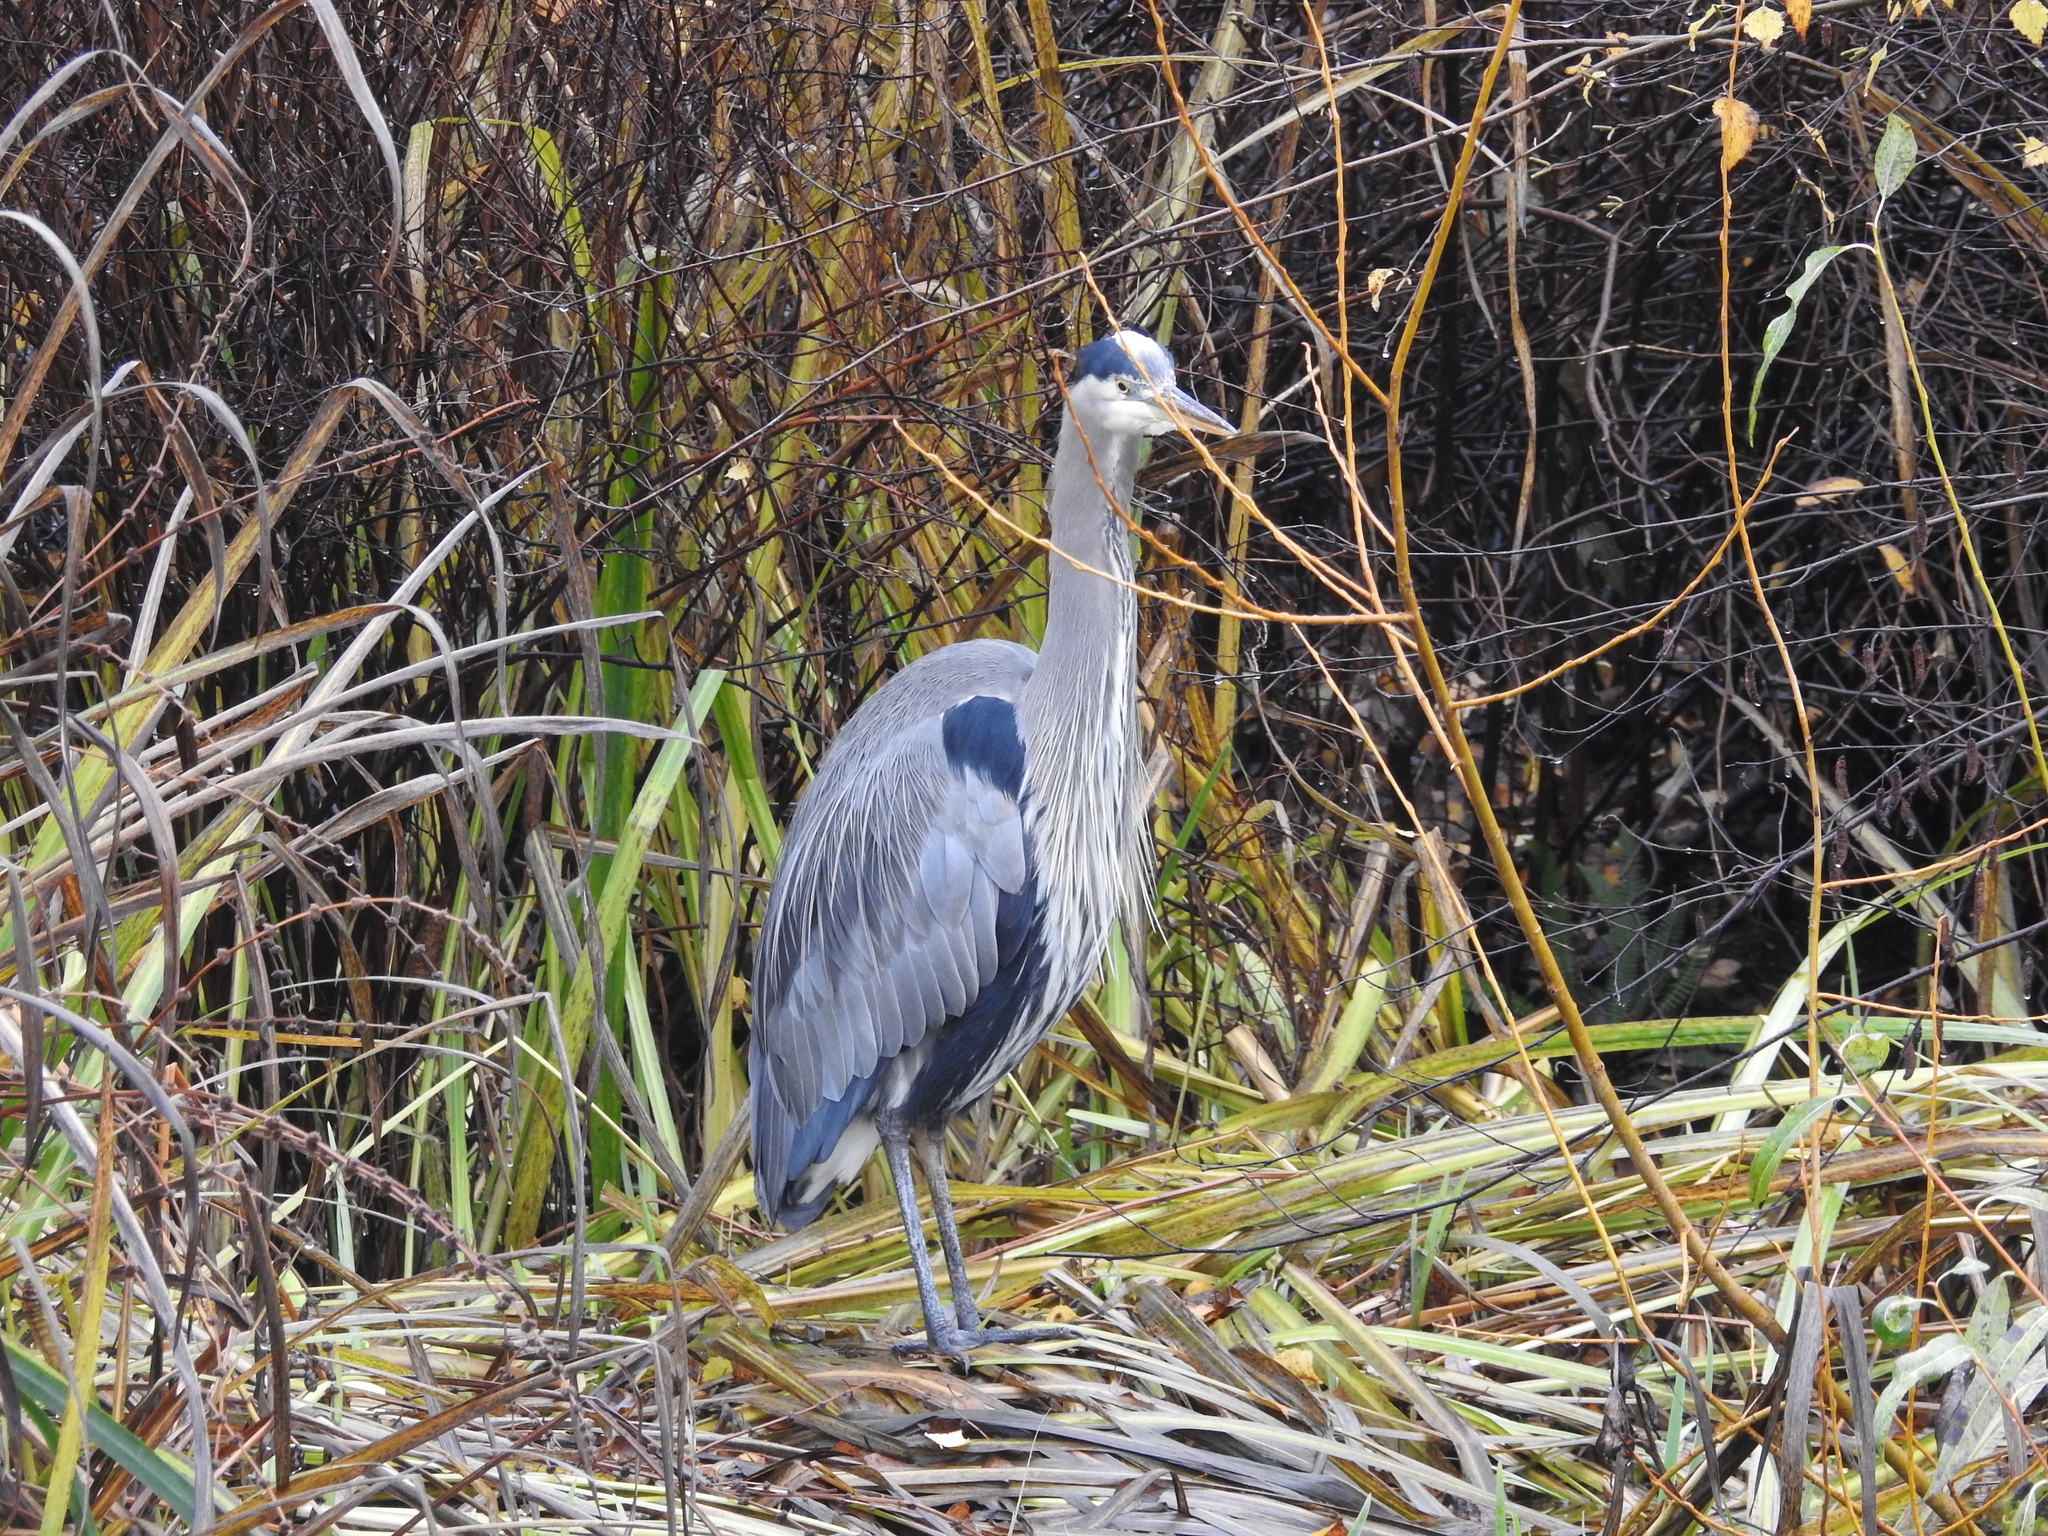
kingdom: Animalia
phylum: Chordata
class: Aves
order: Pelecaniformes
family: Ardeidae
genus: Ardea
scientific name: Ardea herodias
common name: Great blue heron
